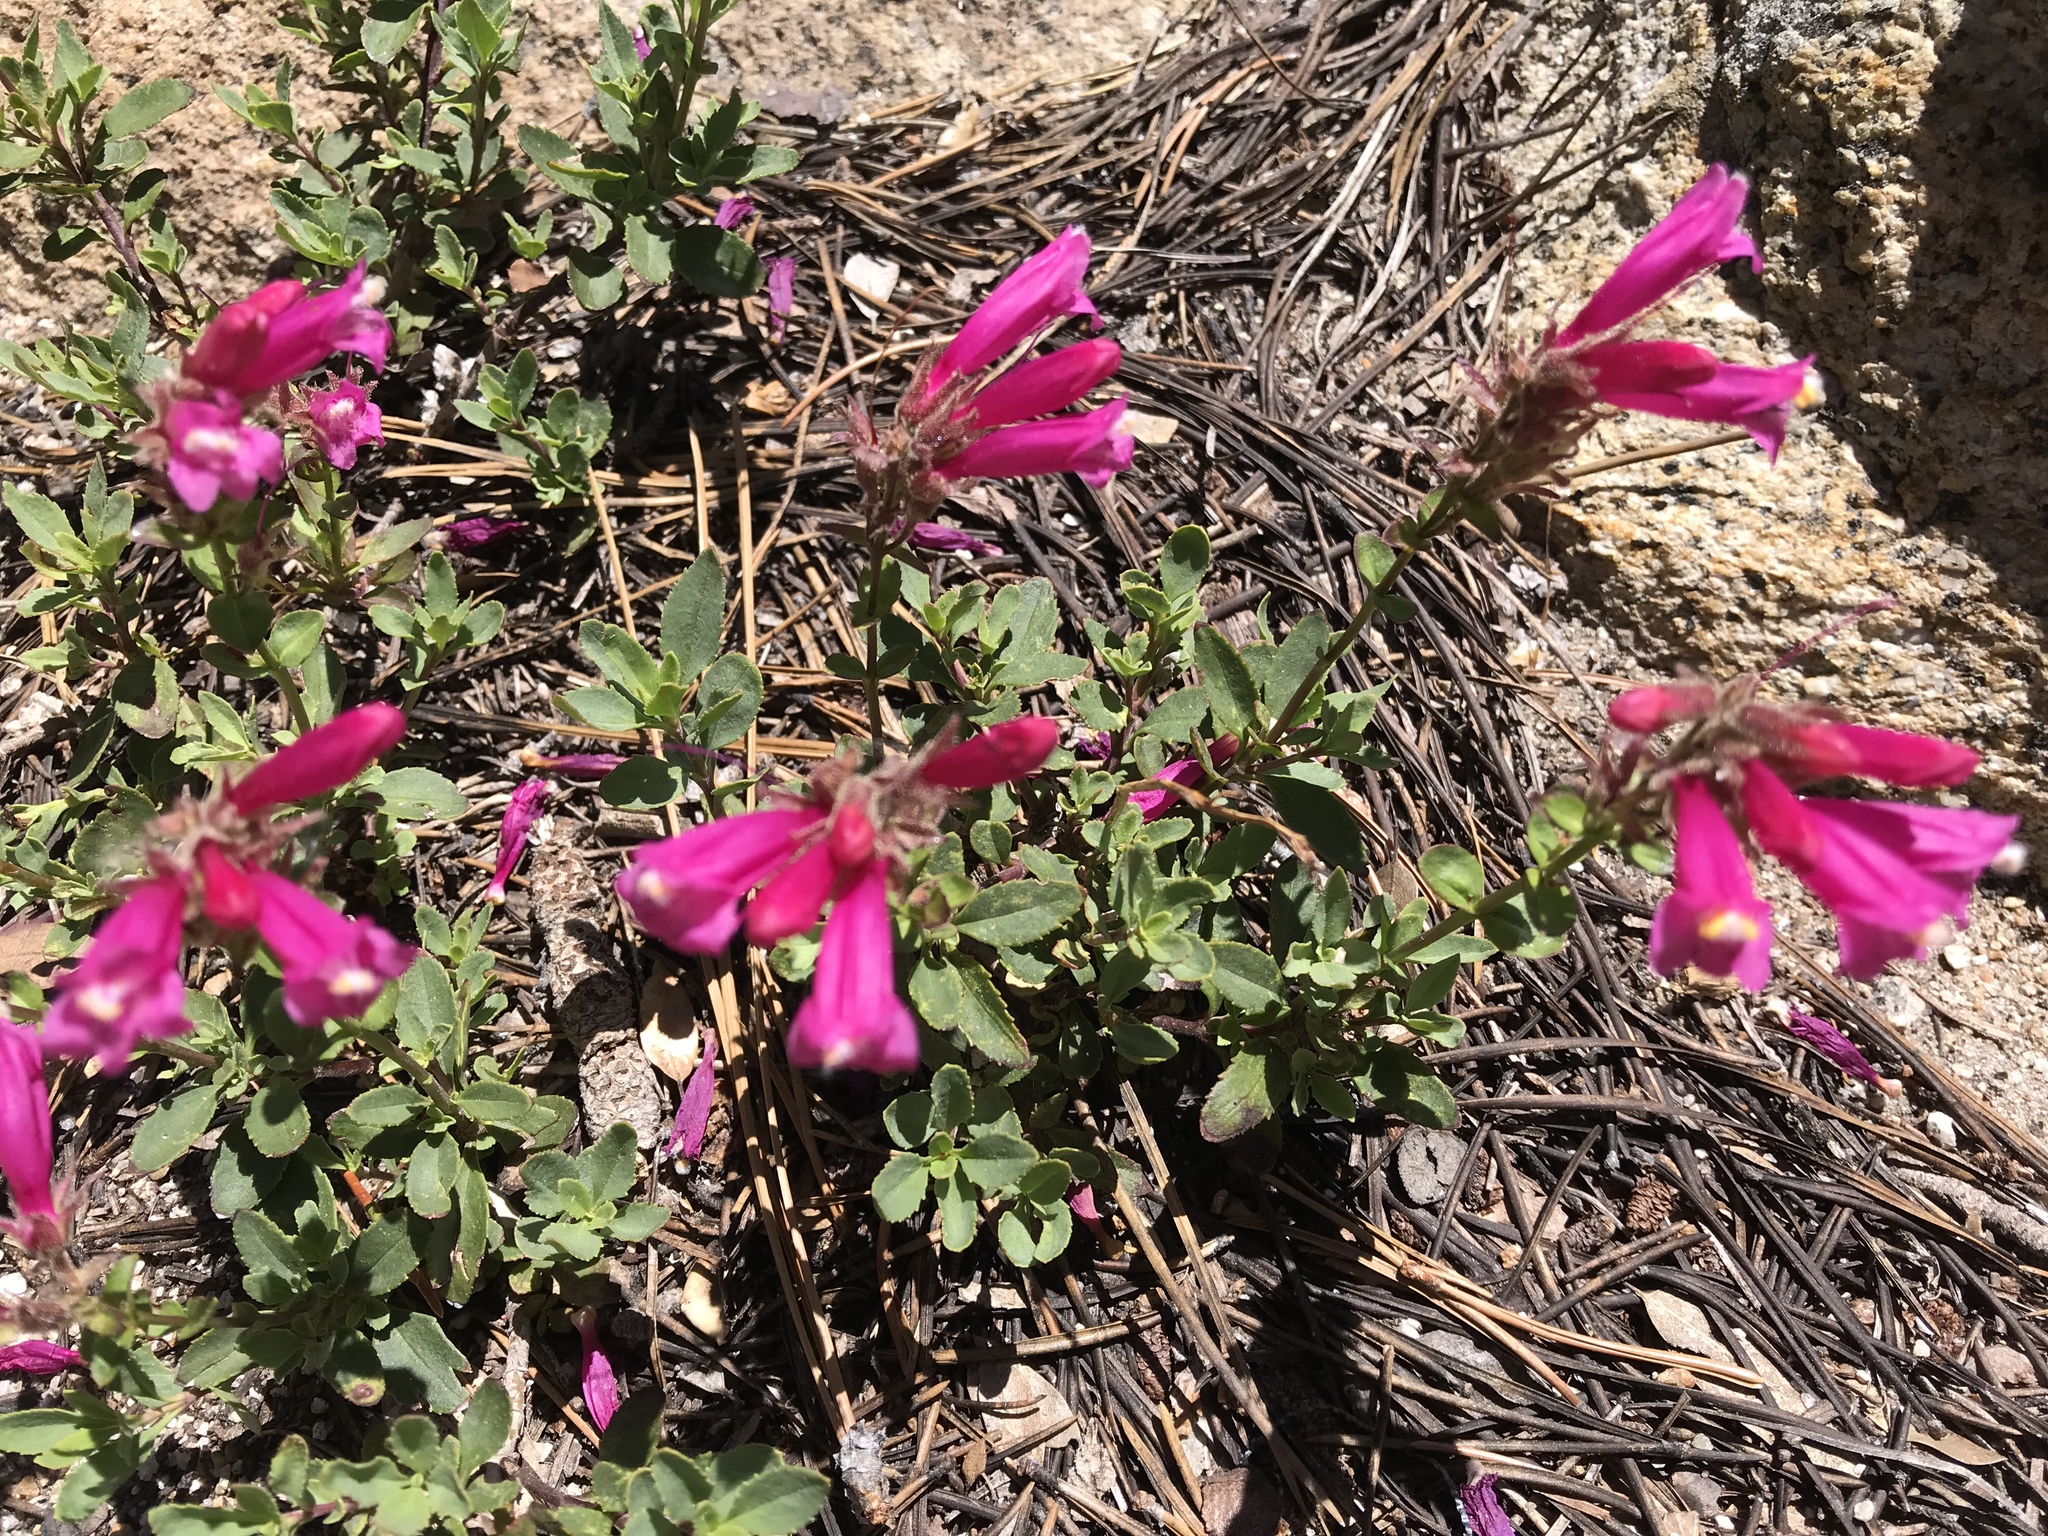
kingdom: Plantae
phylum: Tracheophyta
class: Magnoliopsida
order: Lamiales
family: Plantaginaceae
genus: Penstemon
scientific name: Penstemon newberryi
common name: Mountain-pride
